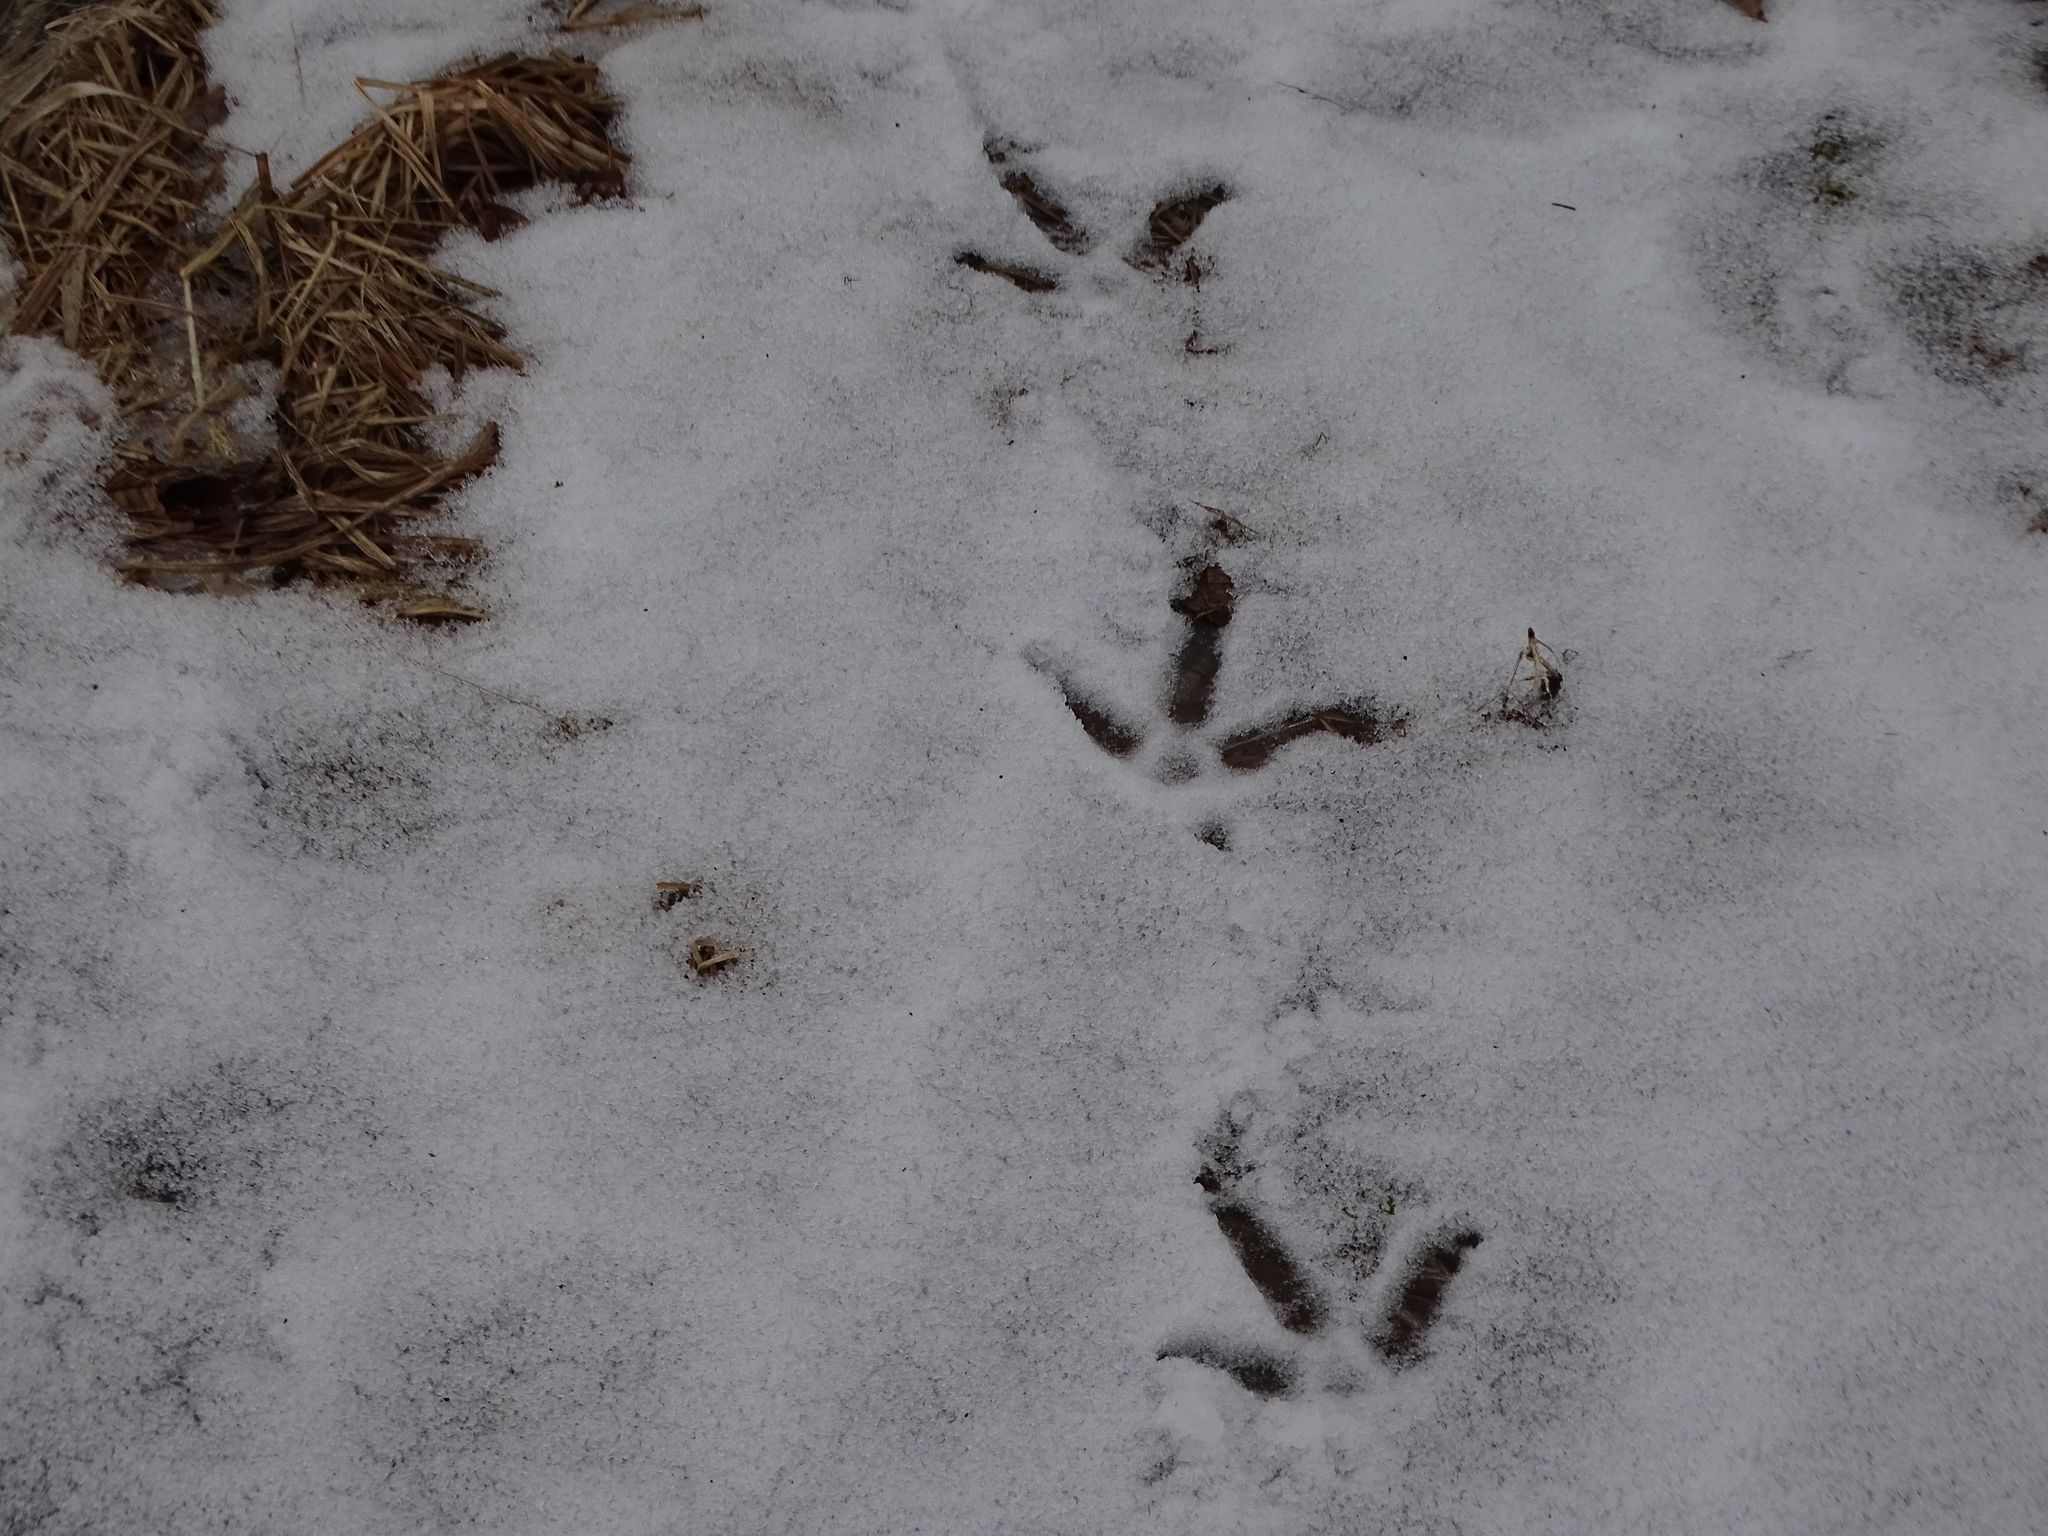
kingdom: Animalia
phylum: Chordata
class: Aves
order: Galliformes
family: Phasianidae
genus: Meleagris
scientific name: Meleagris gallopavo
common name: Wild turkey
